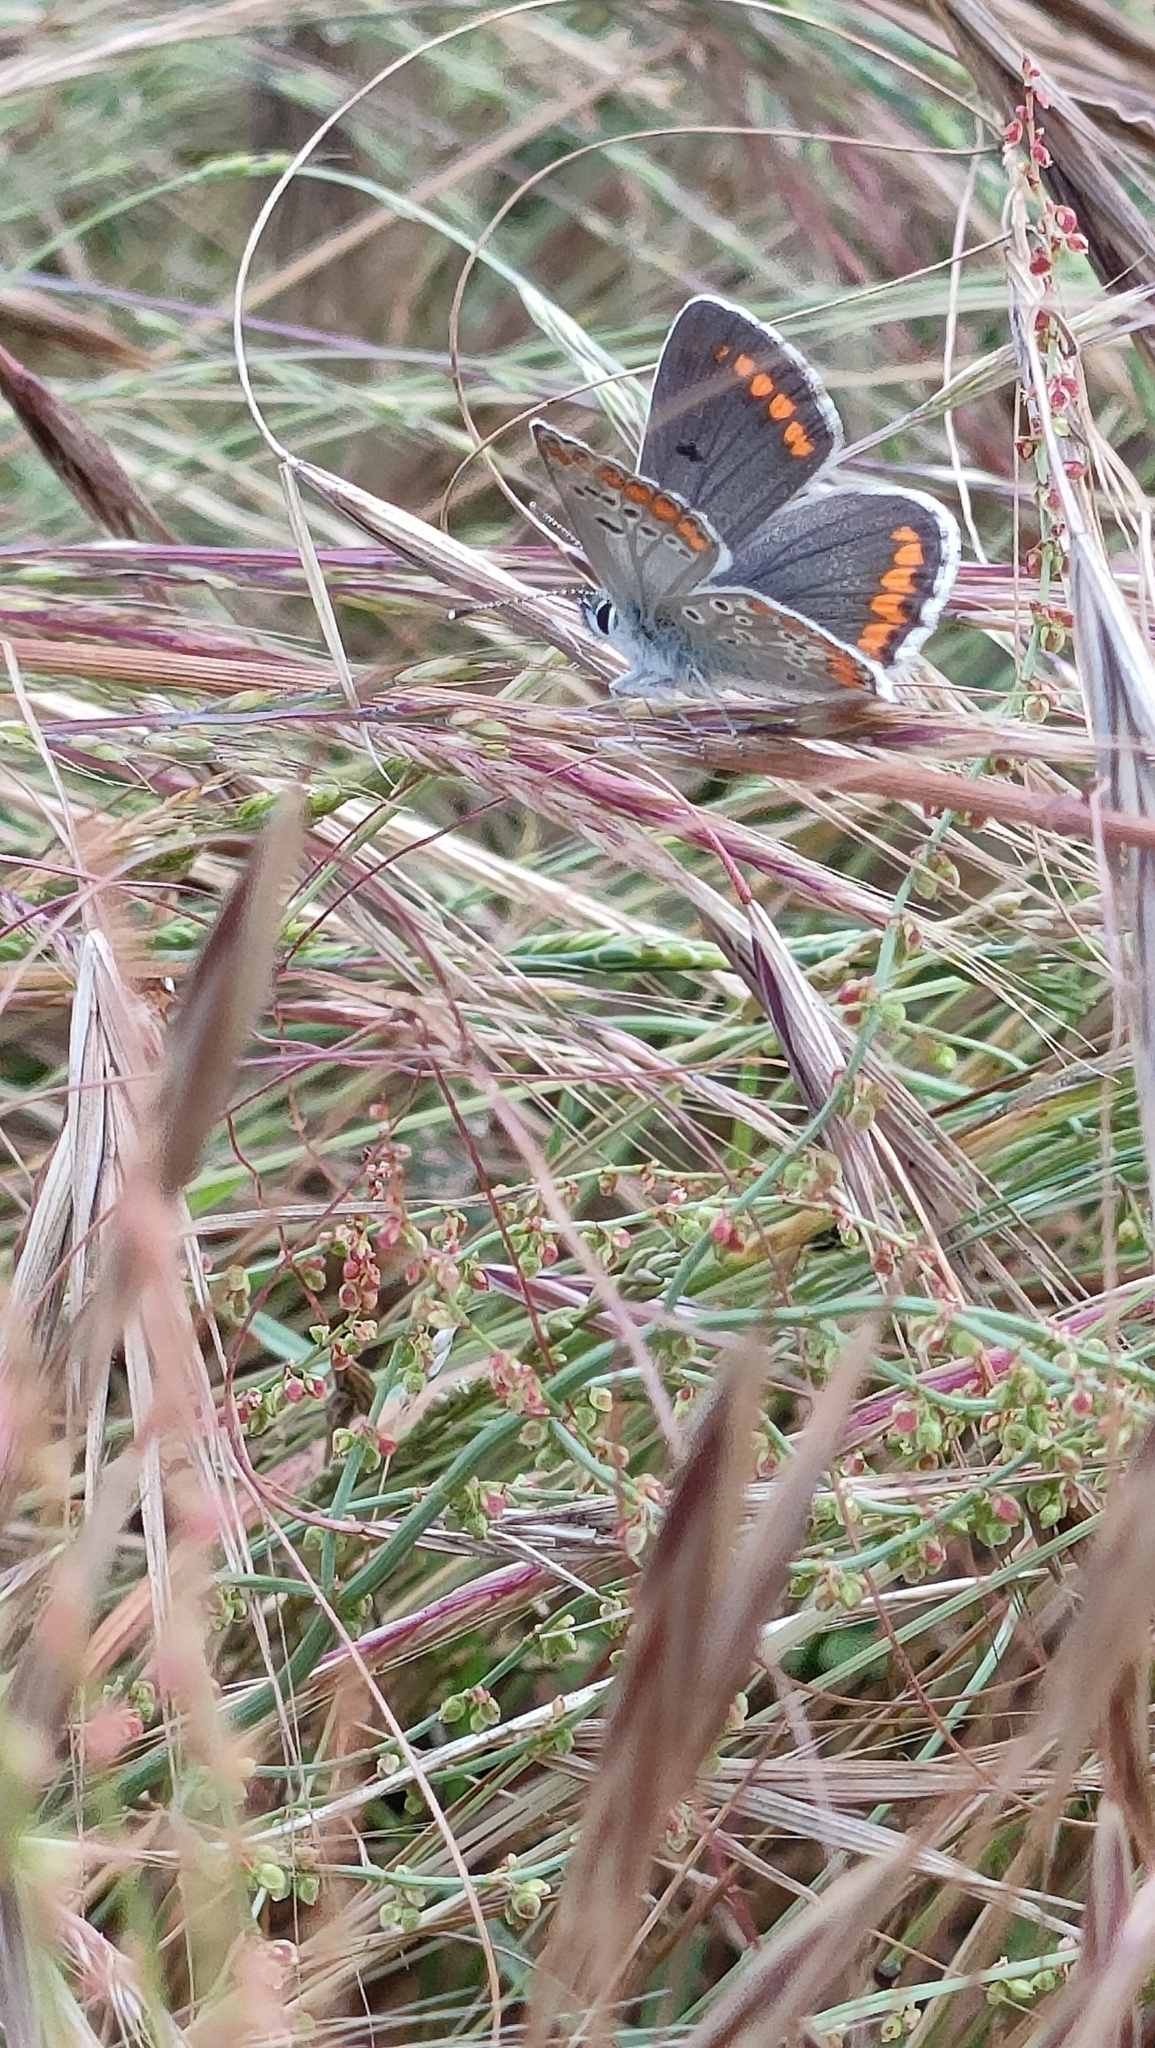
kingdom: Animalia
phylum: Arthropoda
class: Insecta
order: Lepidoptera
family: Lycaenidae
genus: Aricia
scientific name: Aricia agestis
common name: Brown argus
